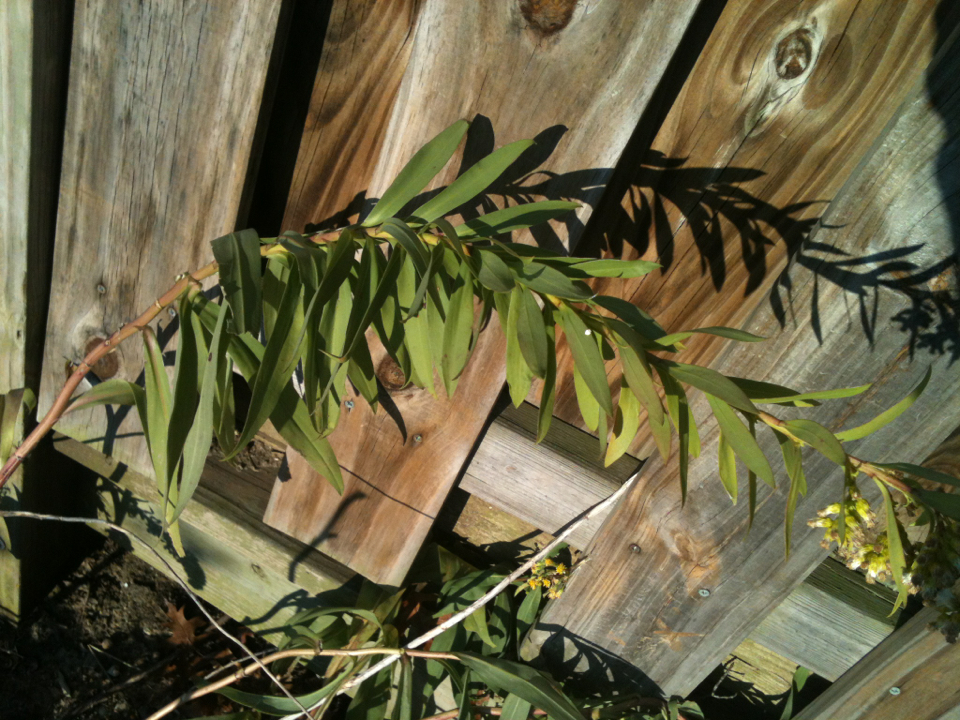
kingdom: Plantae
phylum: Tracheophyta
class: Magnoliopsida
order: Asterales
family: Asteraceae
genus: Solidago
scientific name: Solidago sempervirens
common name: Salt-marsh goldenrod
